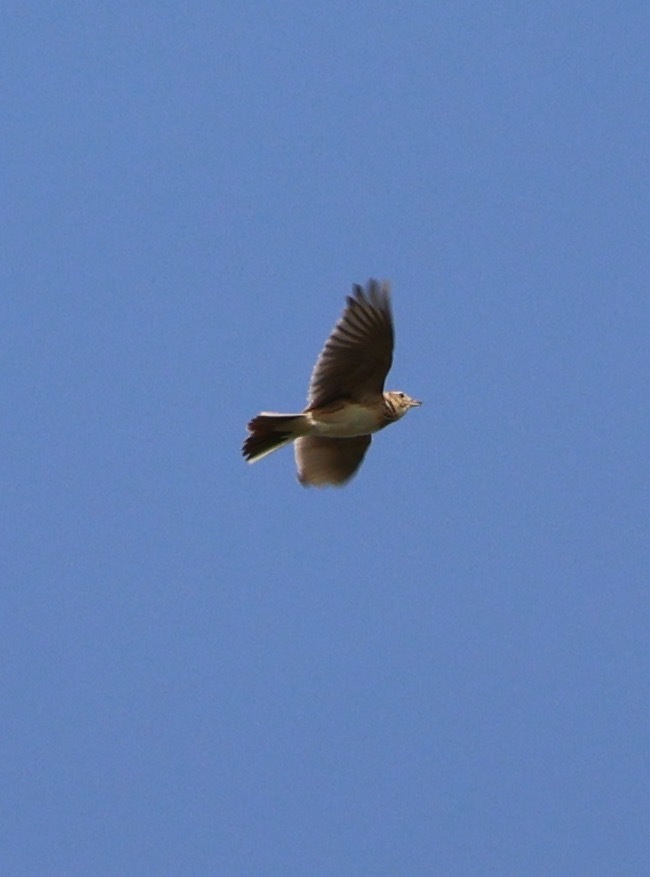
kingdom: Animalia
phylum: Chordata
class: Aves
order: Passeriformes
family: Alaudidae
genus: Alauda
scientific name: Alauda arvensis
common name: Eurasian skylark
